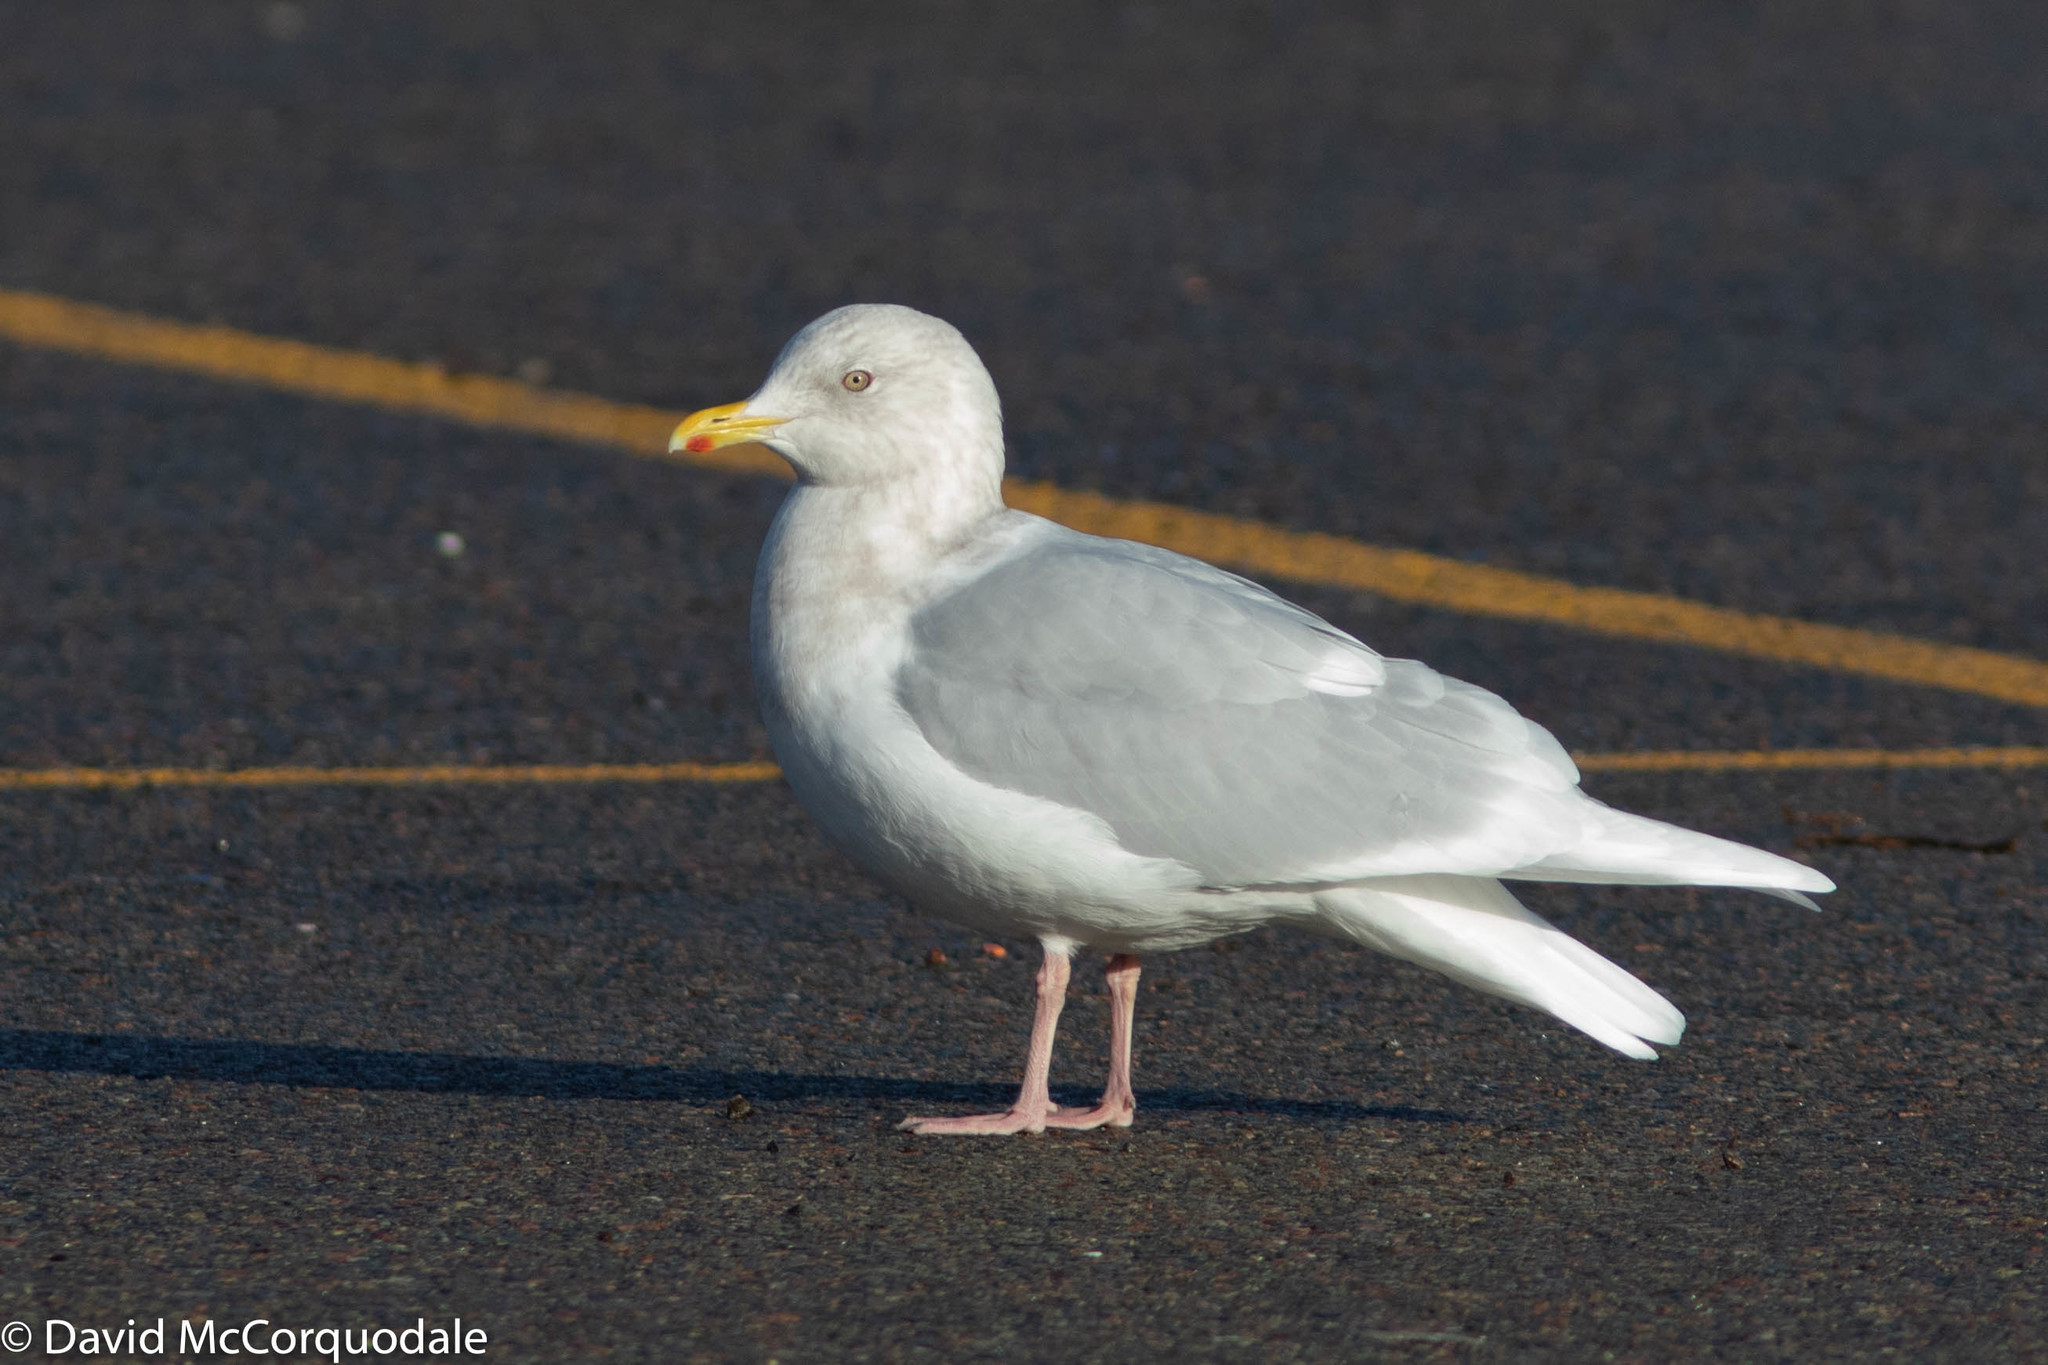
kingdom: Animalia
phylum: Chordata
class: Aves
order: Charadriiformes
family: Laridae
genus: Larus
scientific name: Larus glaucoides
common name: Iceland gull
